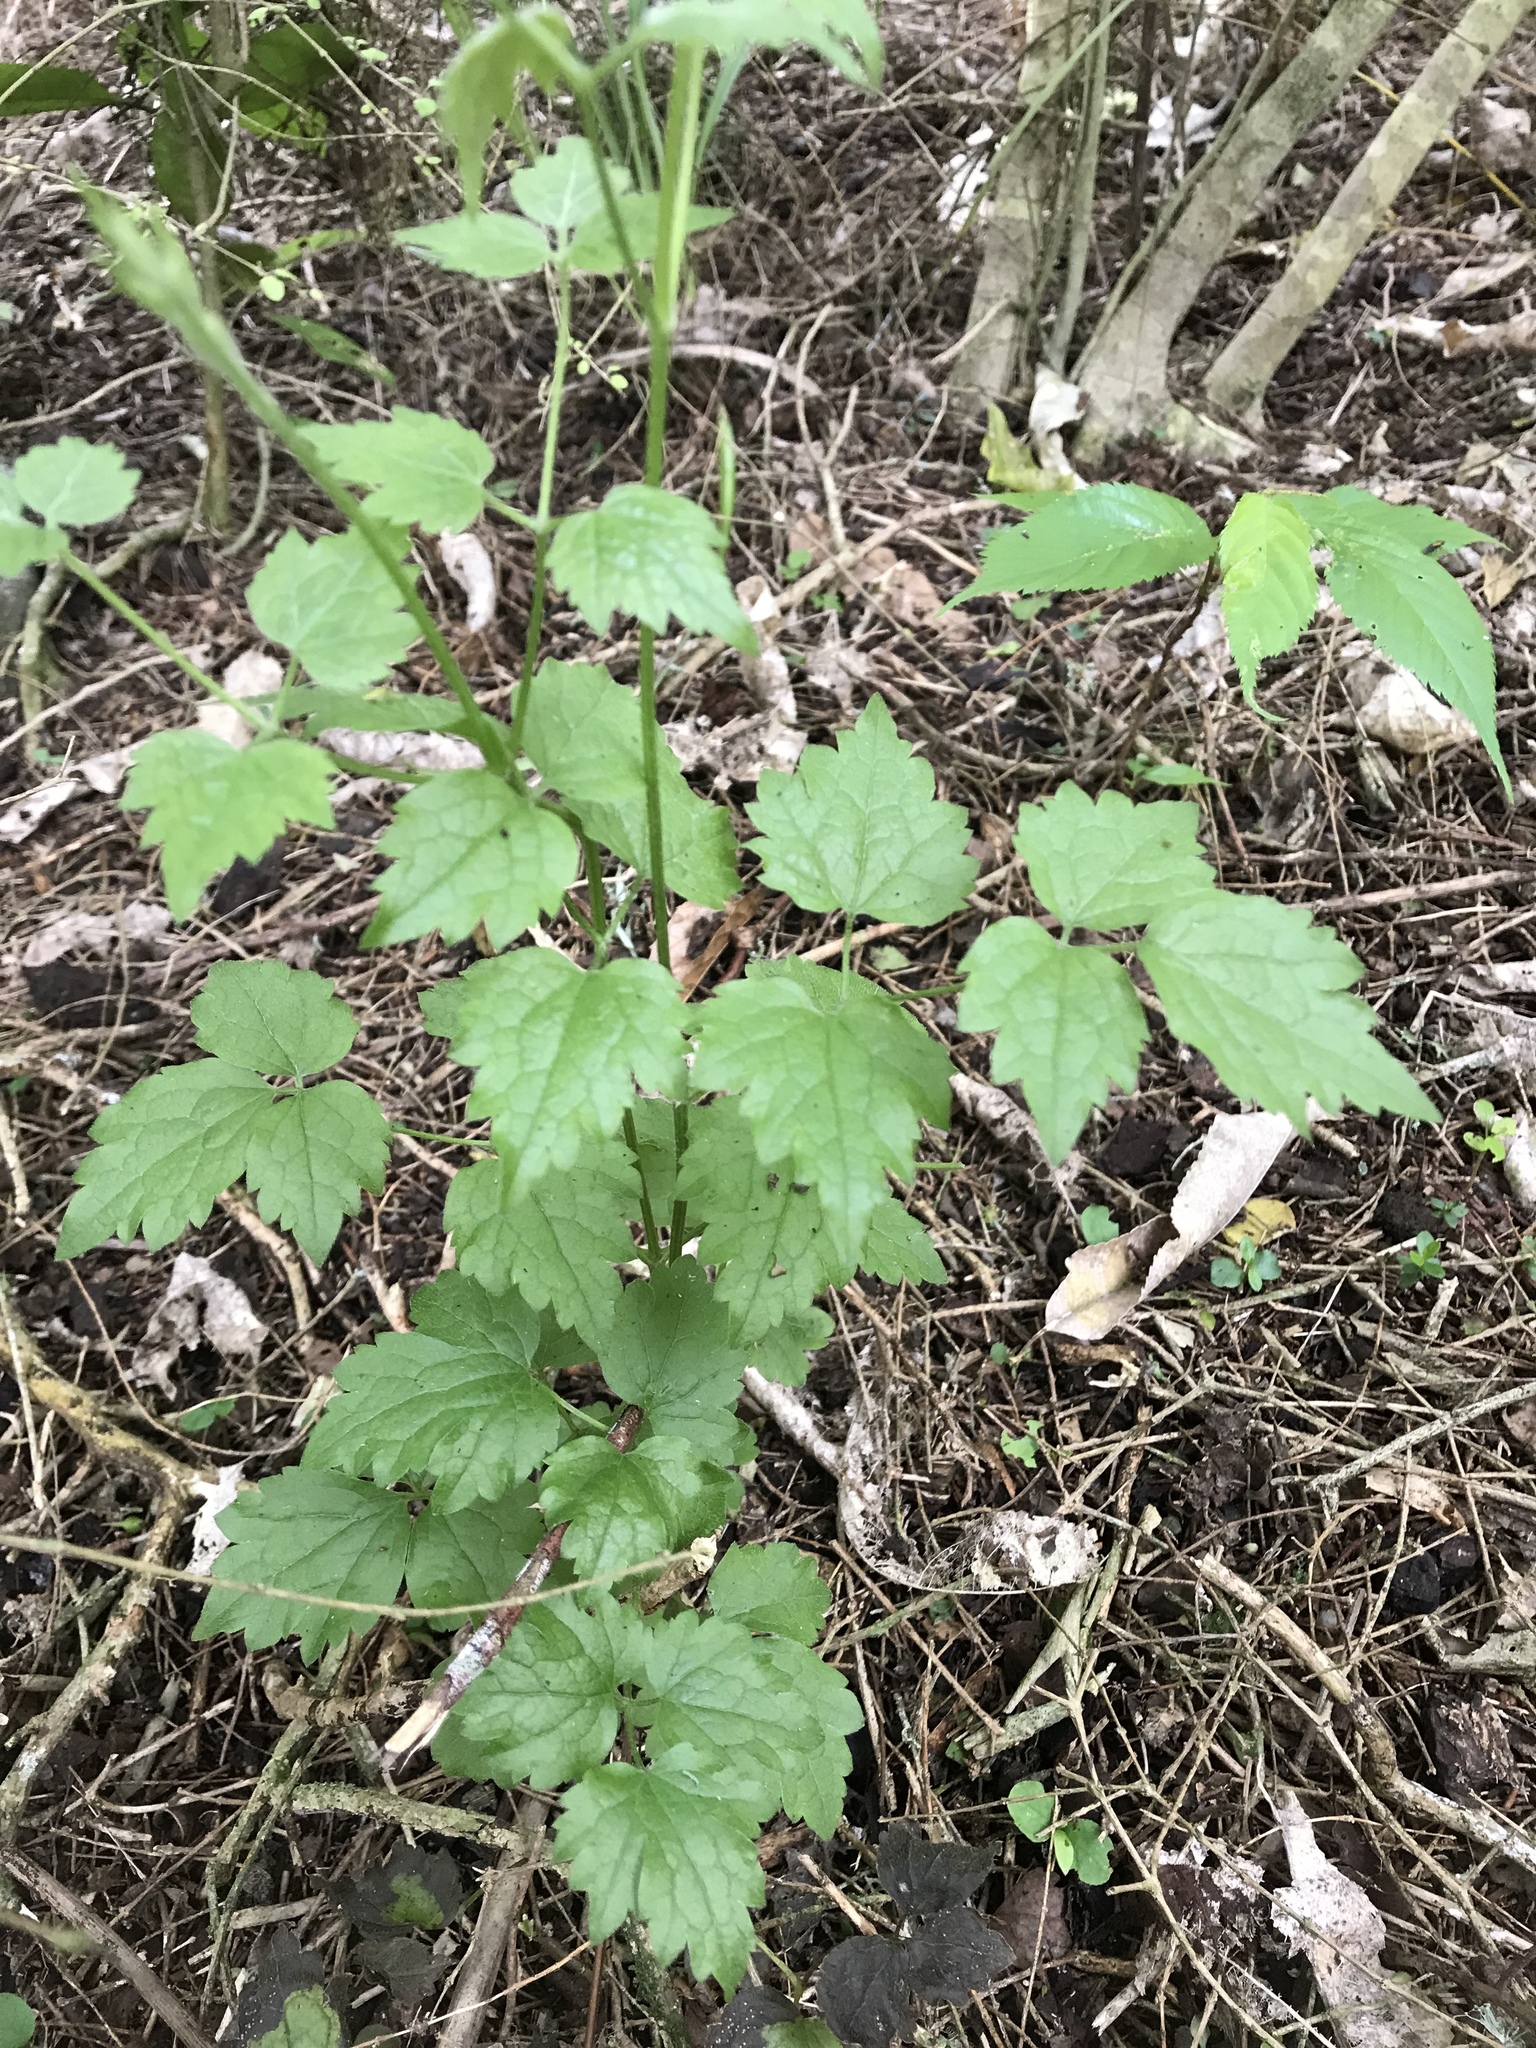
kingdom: Plantae
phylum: Tracheophyta
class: Magnoliopsida
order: Ranunculales
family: Ranunculaceae
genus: Clematis
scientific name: Clematis vitalba
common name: Evergreen clematis
